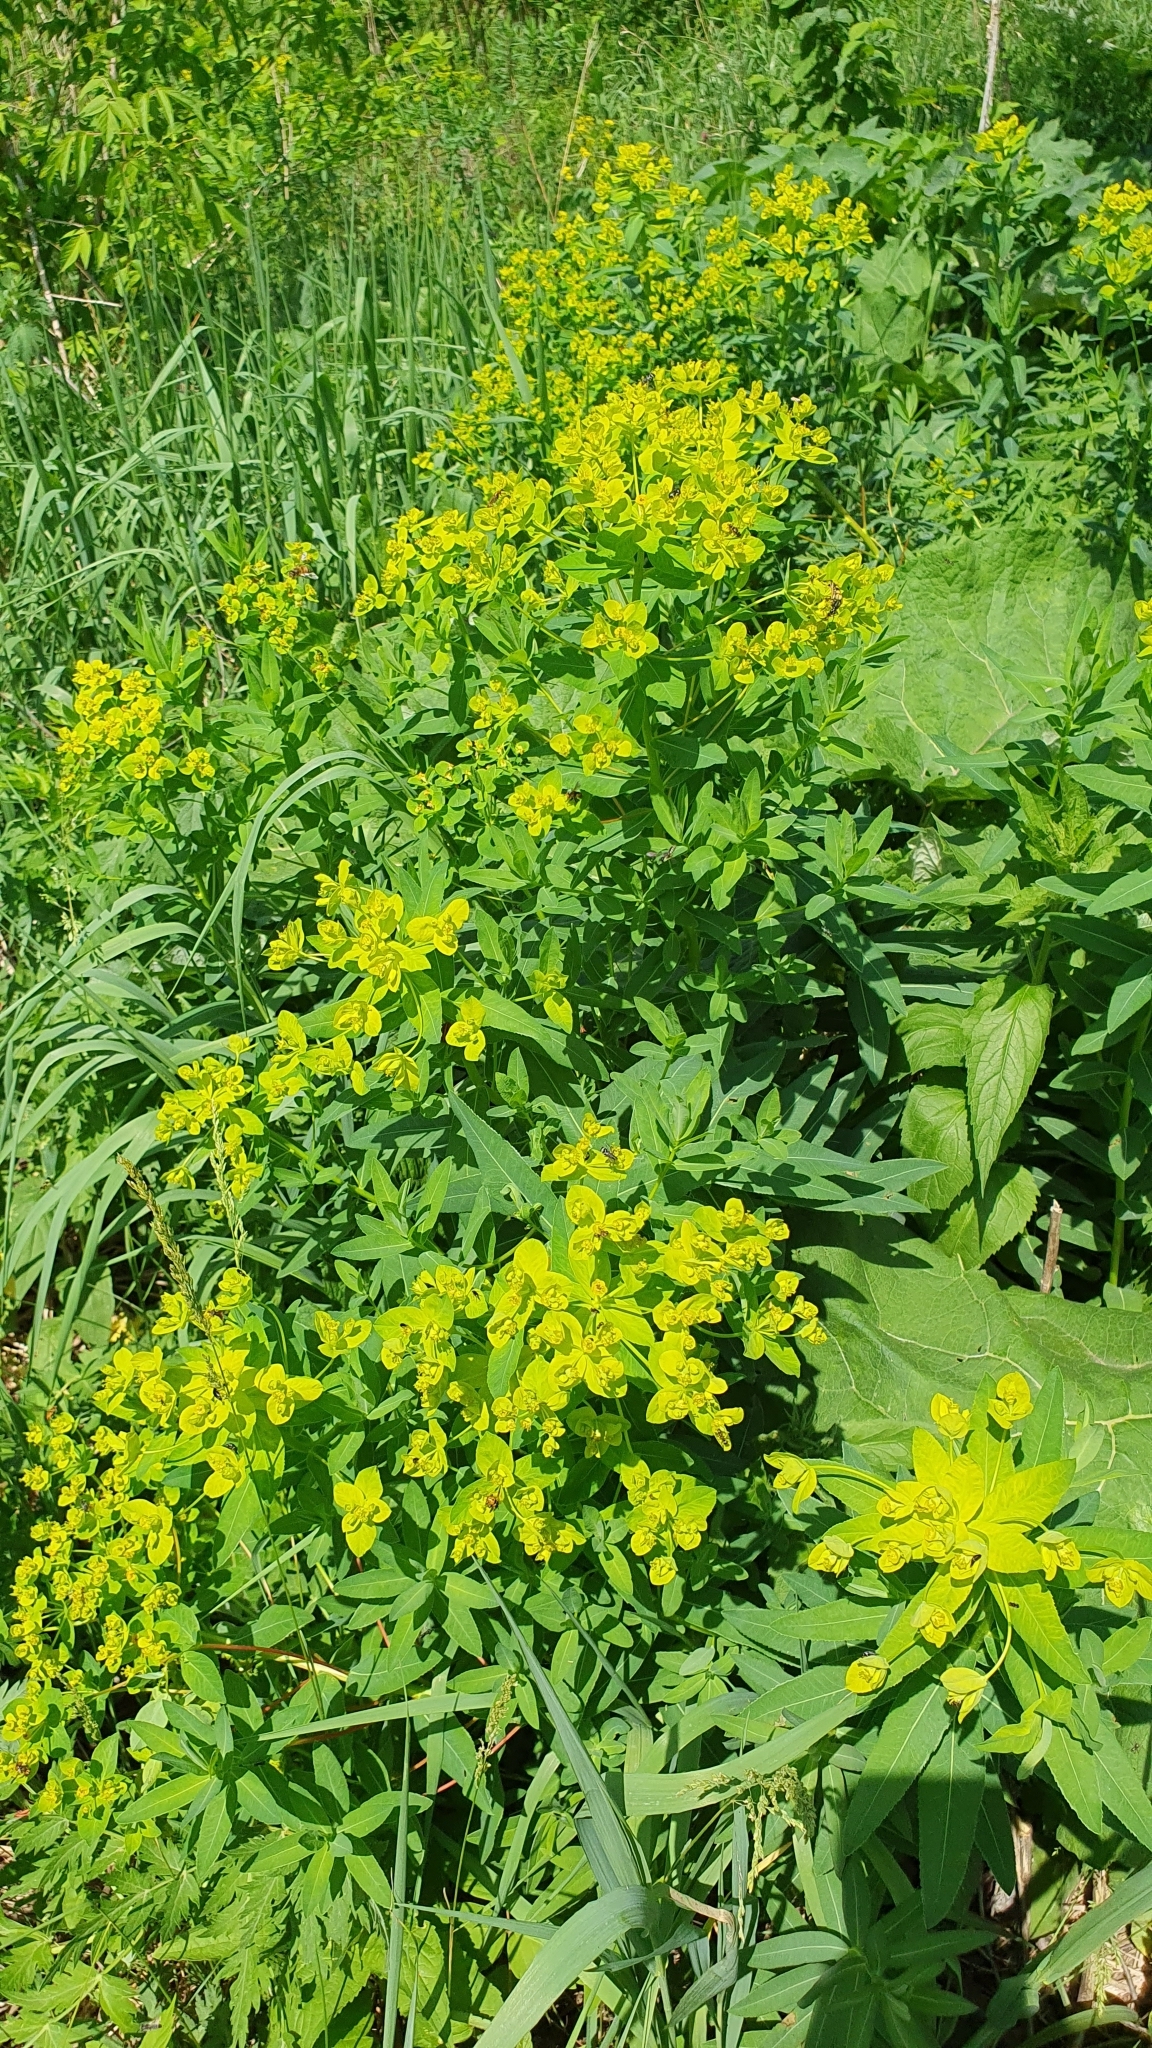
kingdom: Plantae
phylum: Tracheophyta
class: Magnoliopsida
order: Malpighiales
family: Euphorbiaceae
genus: Euphorbia
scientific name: Euphorbia semivillosa
